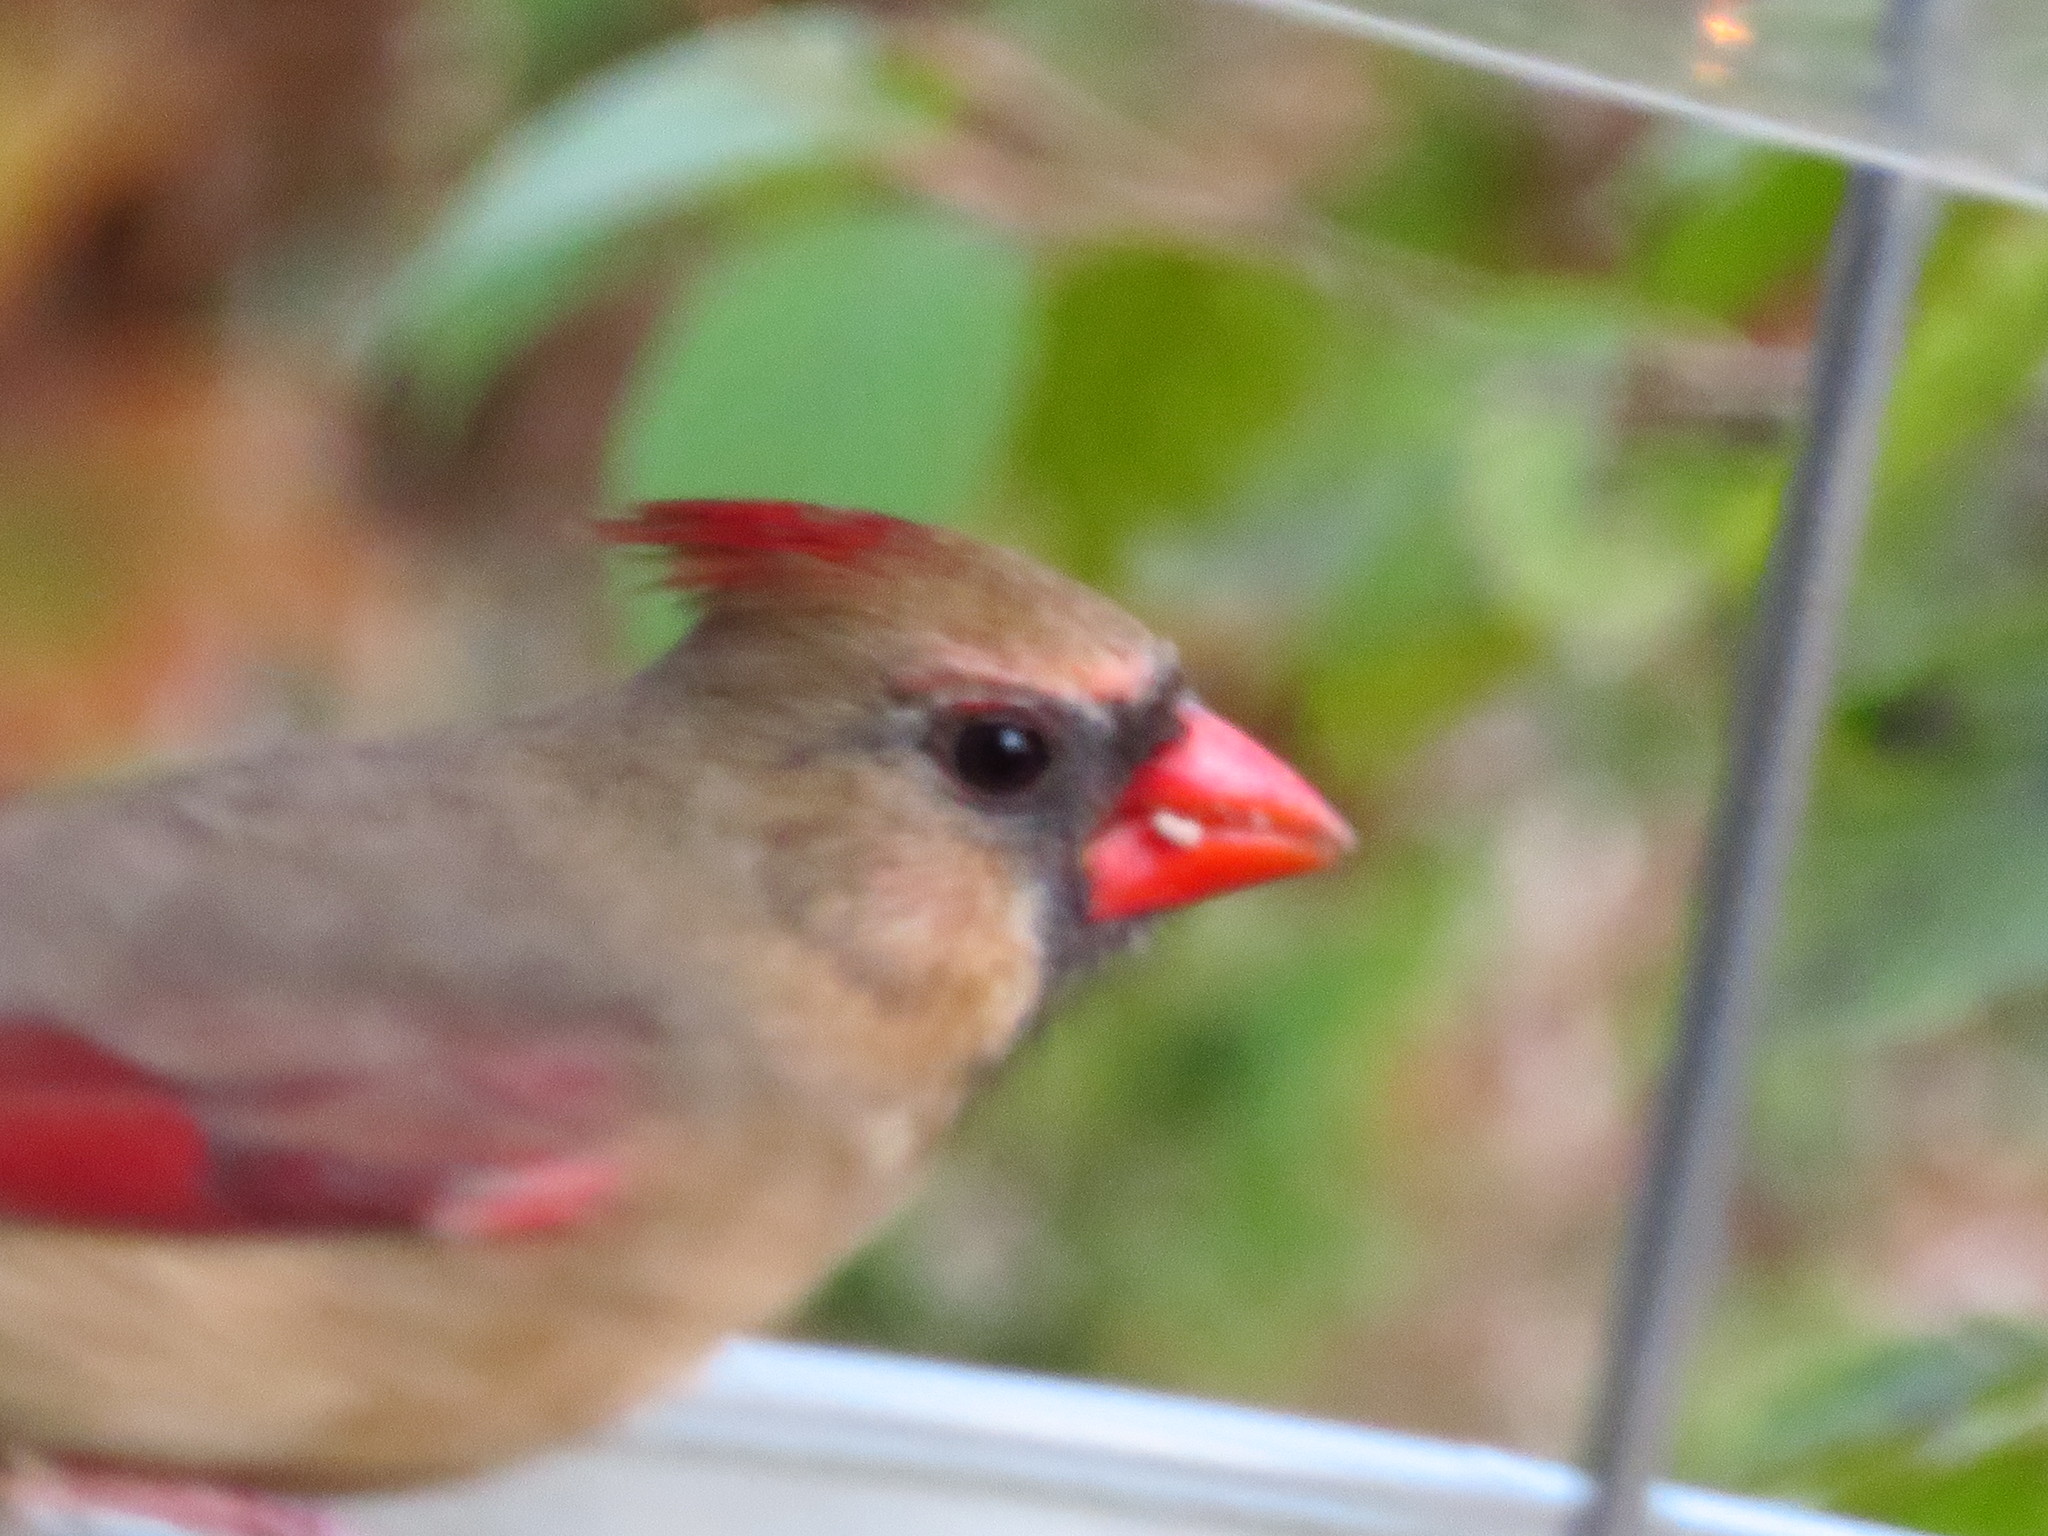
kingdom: Animalia
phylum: Chordata
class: Aves
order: Passeriformes
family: Cardinalidae
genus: Cardinalis
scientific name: Cardinalis cardinalis
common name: Northern cardinal
